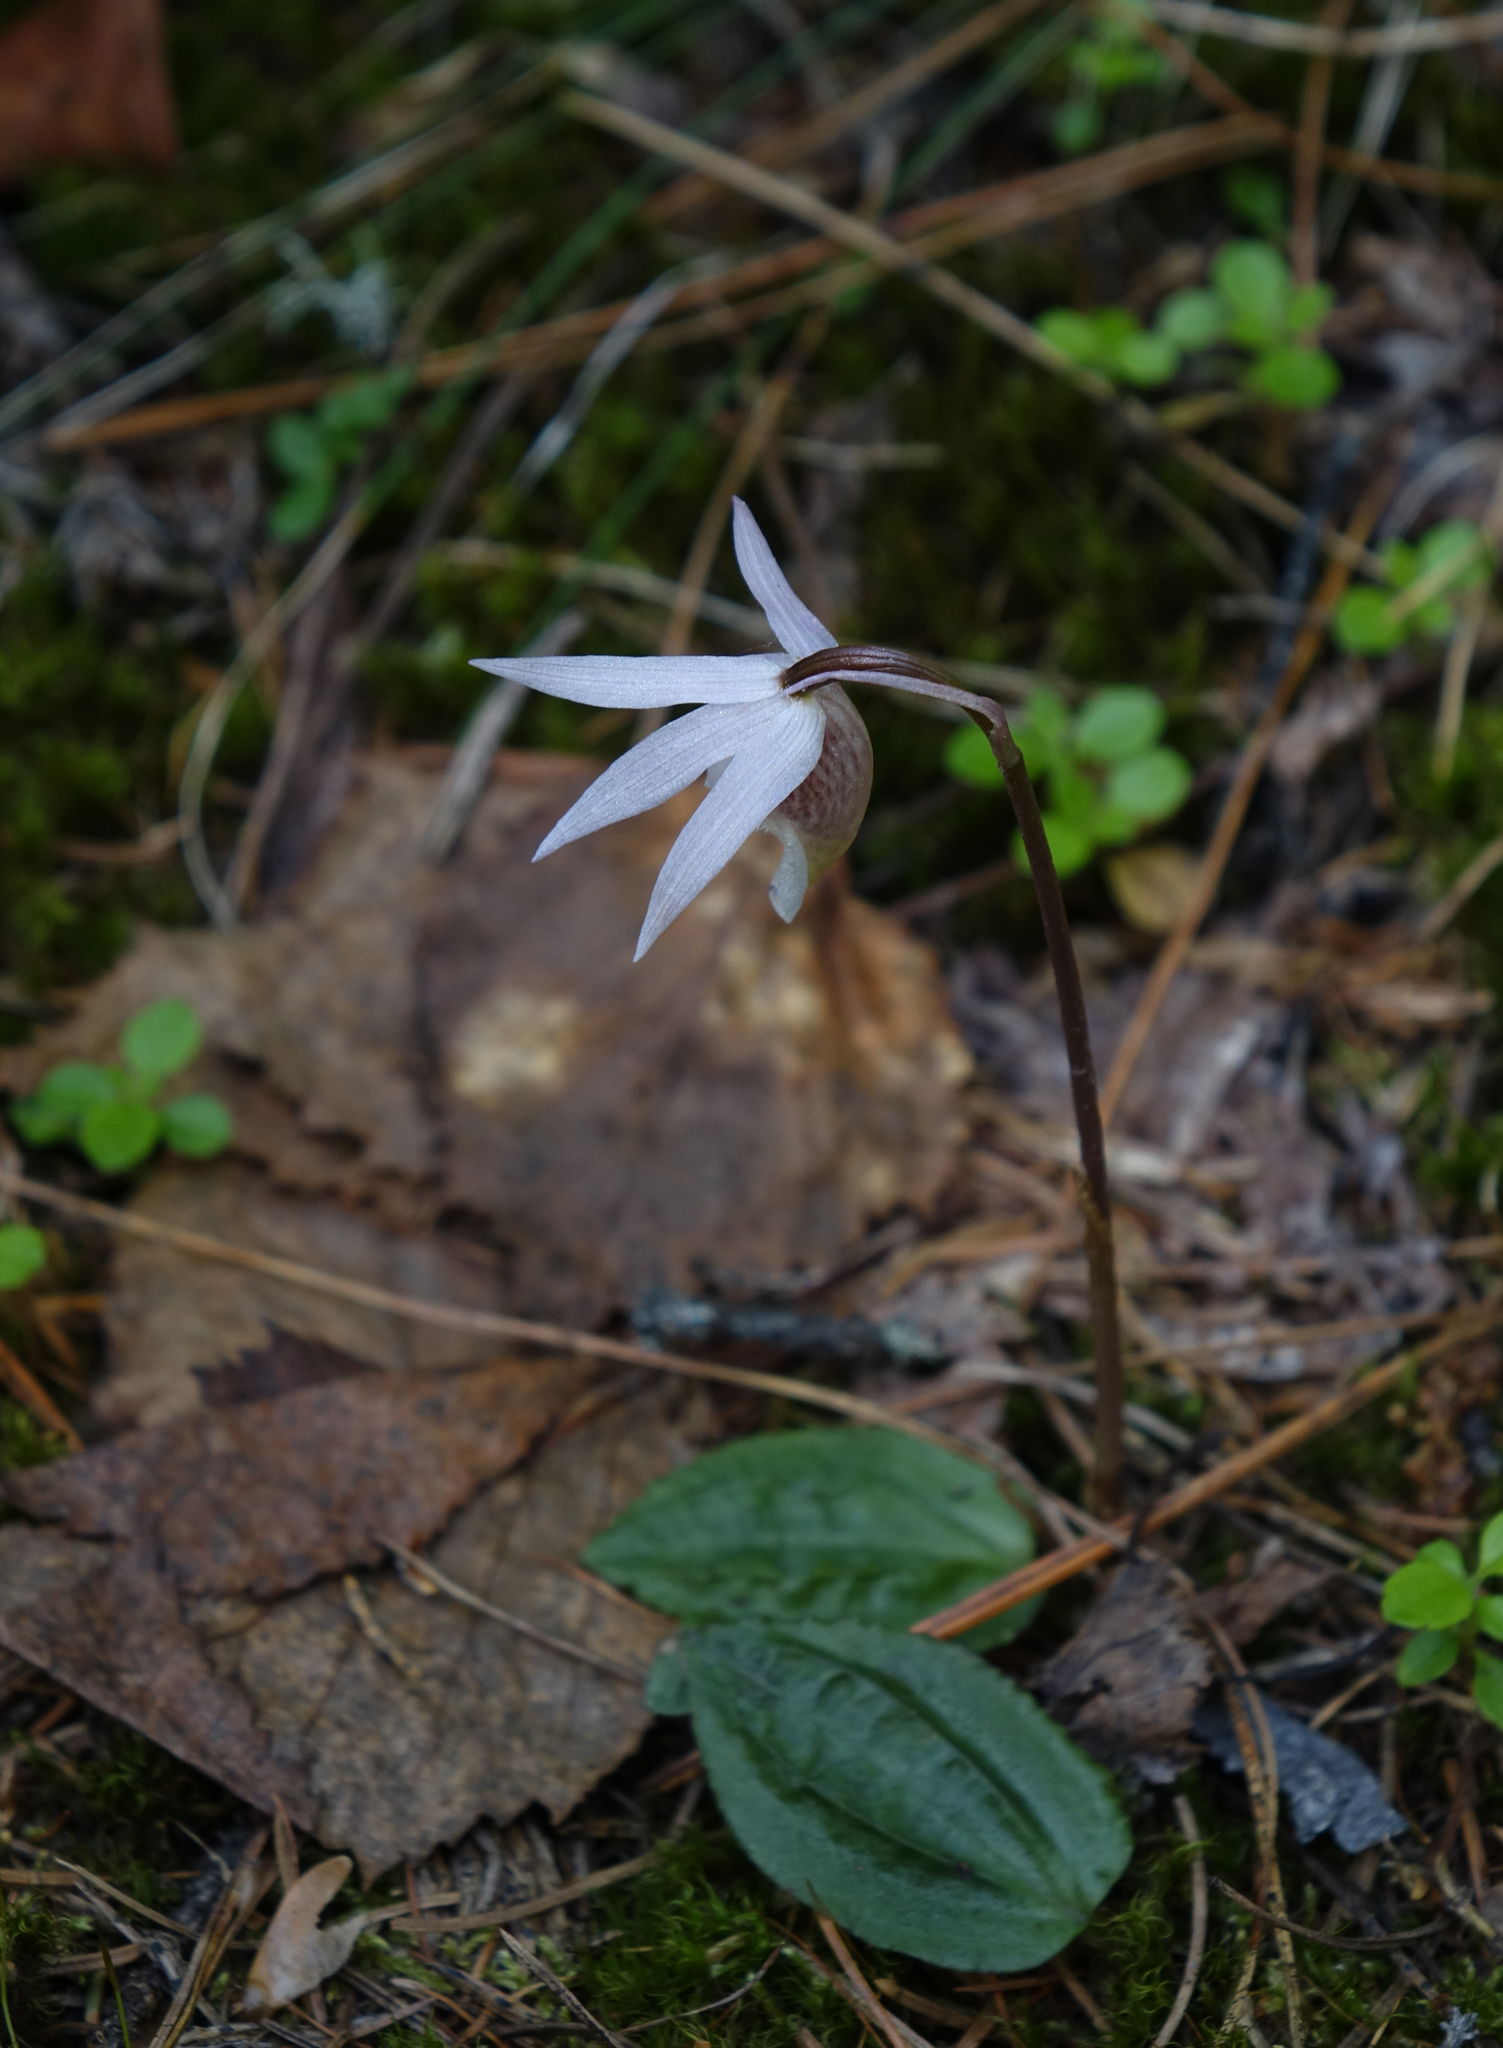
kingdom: Plantae
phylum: Tracheophyta
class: Liliopsida
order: Asparagales
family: Orchidaceae
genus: Calypso
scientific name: Calypso bulbosa
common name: Calypso
